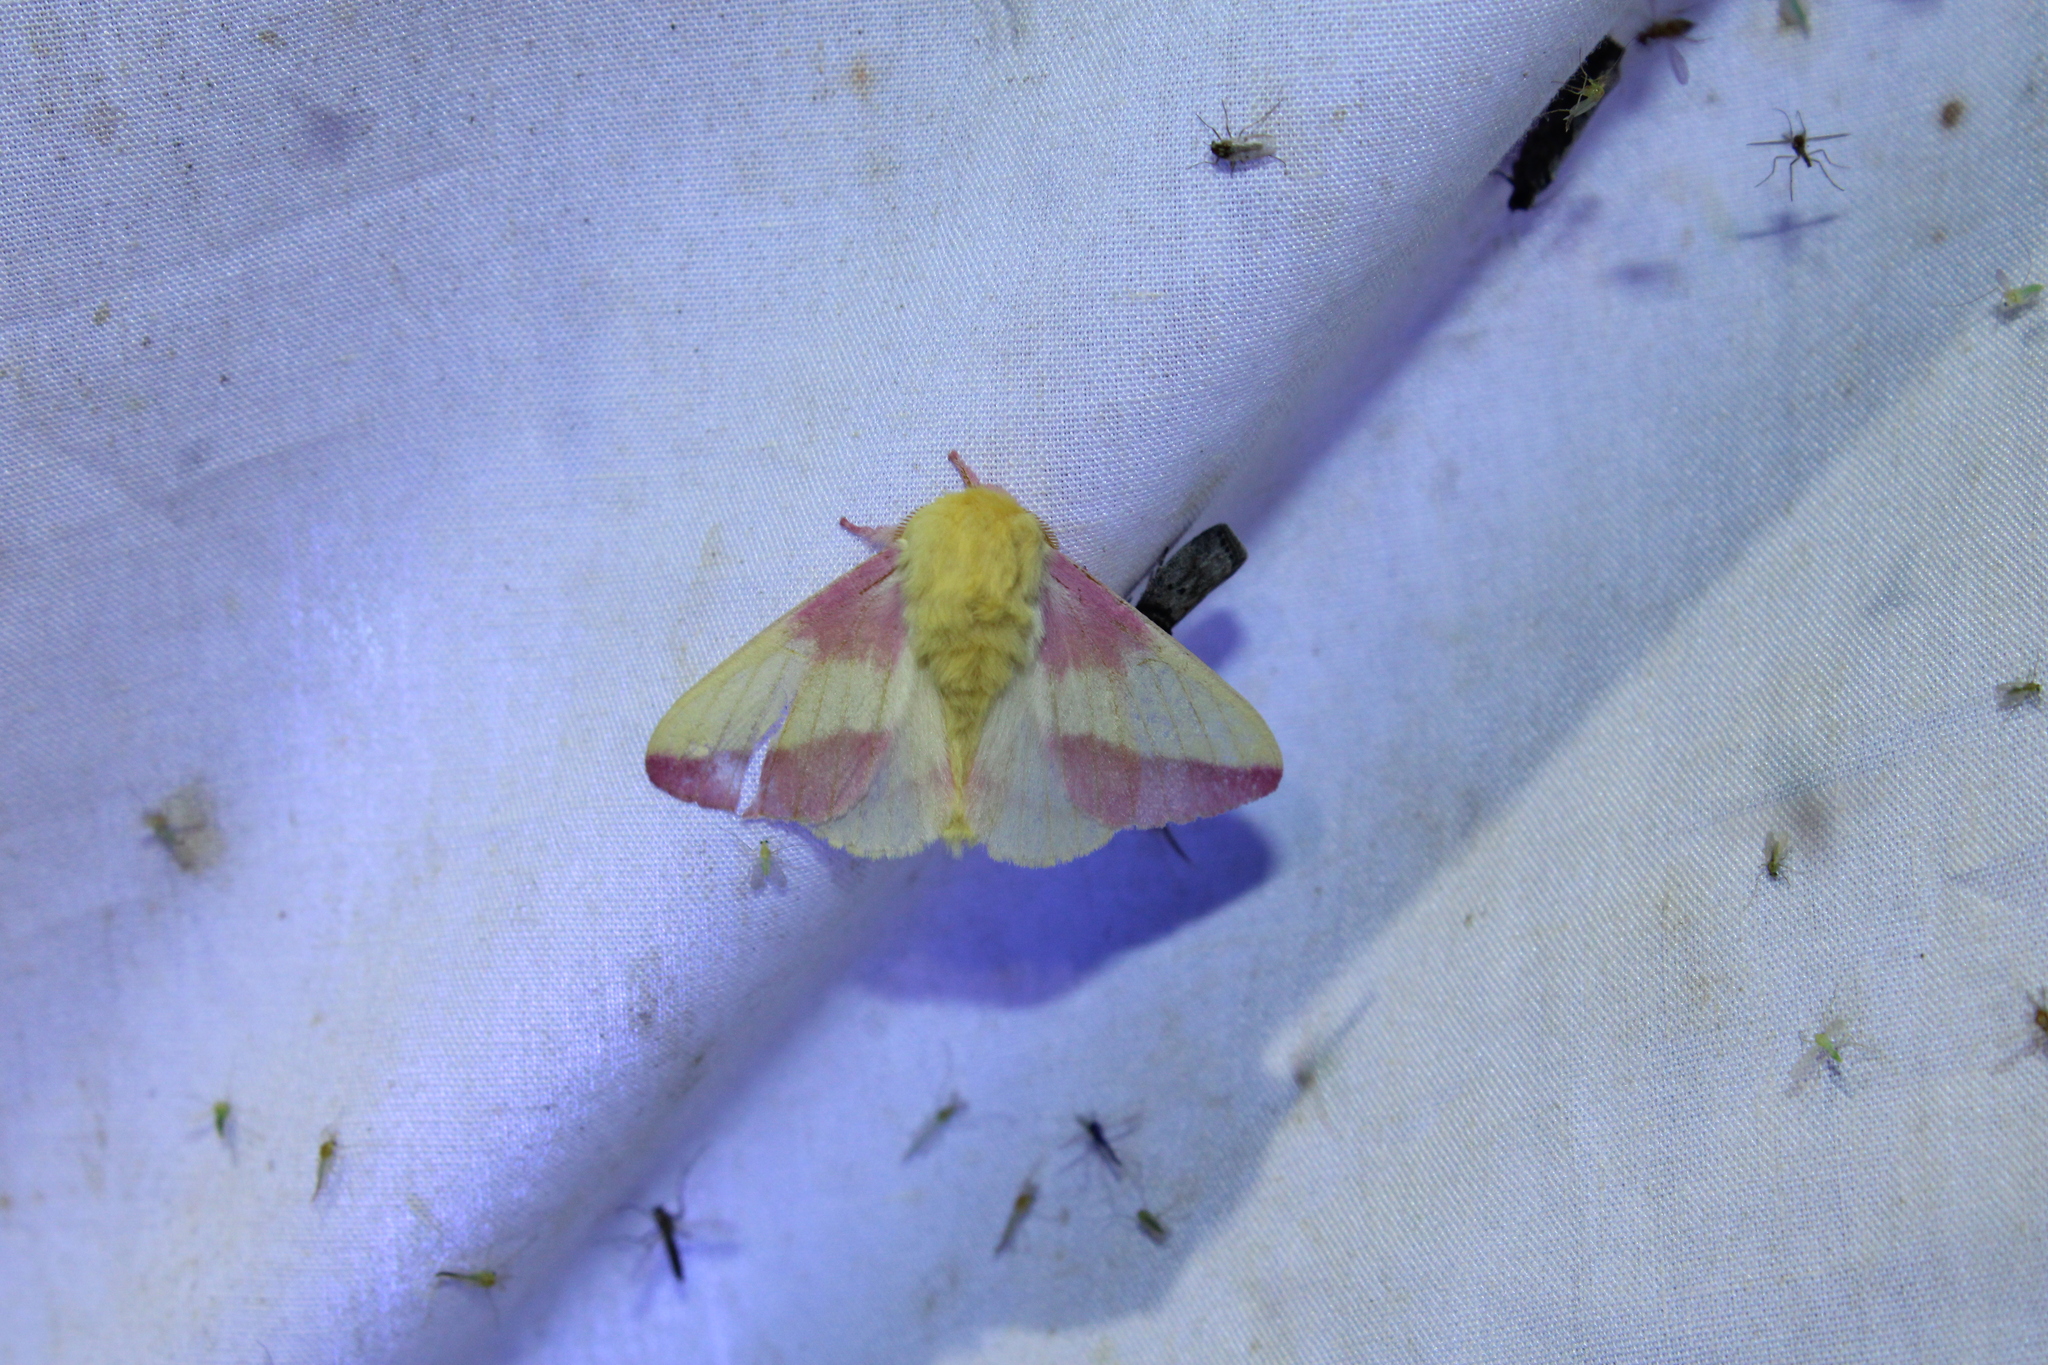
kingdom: Animalia
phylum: Arthropoda
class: Insecta
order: Lepidoptera
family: Saturniidae
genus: Dryocampa
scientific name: Dryocampa rubicunda
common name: Rosy maple moth
